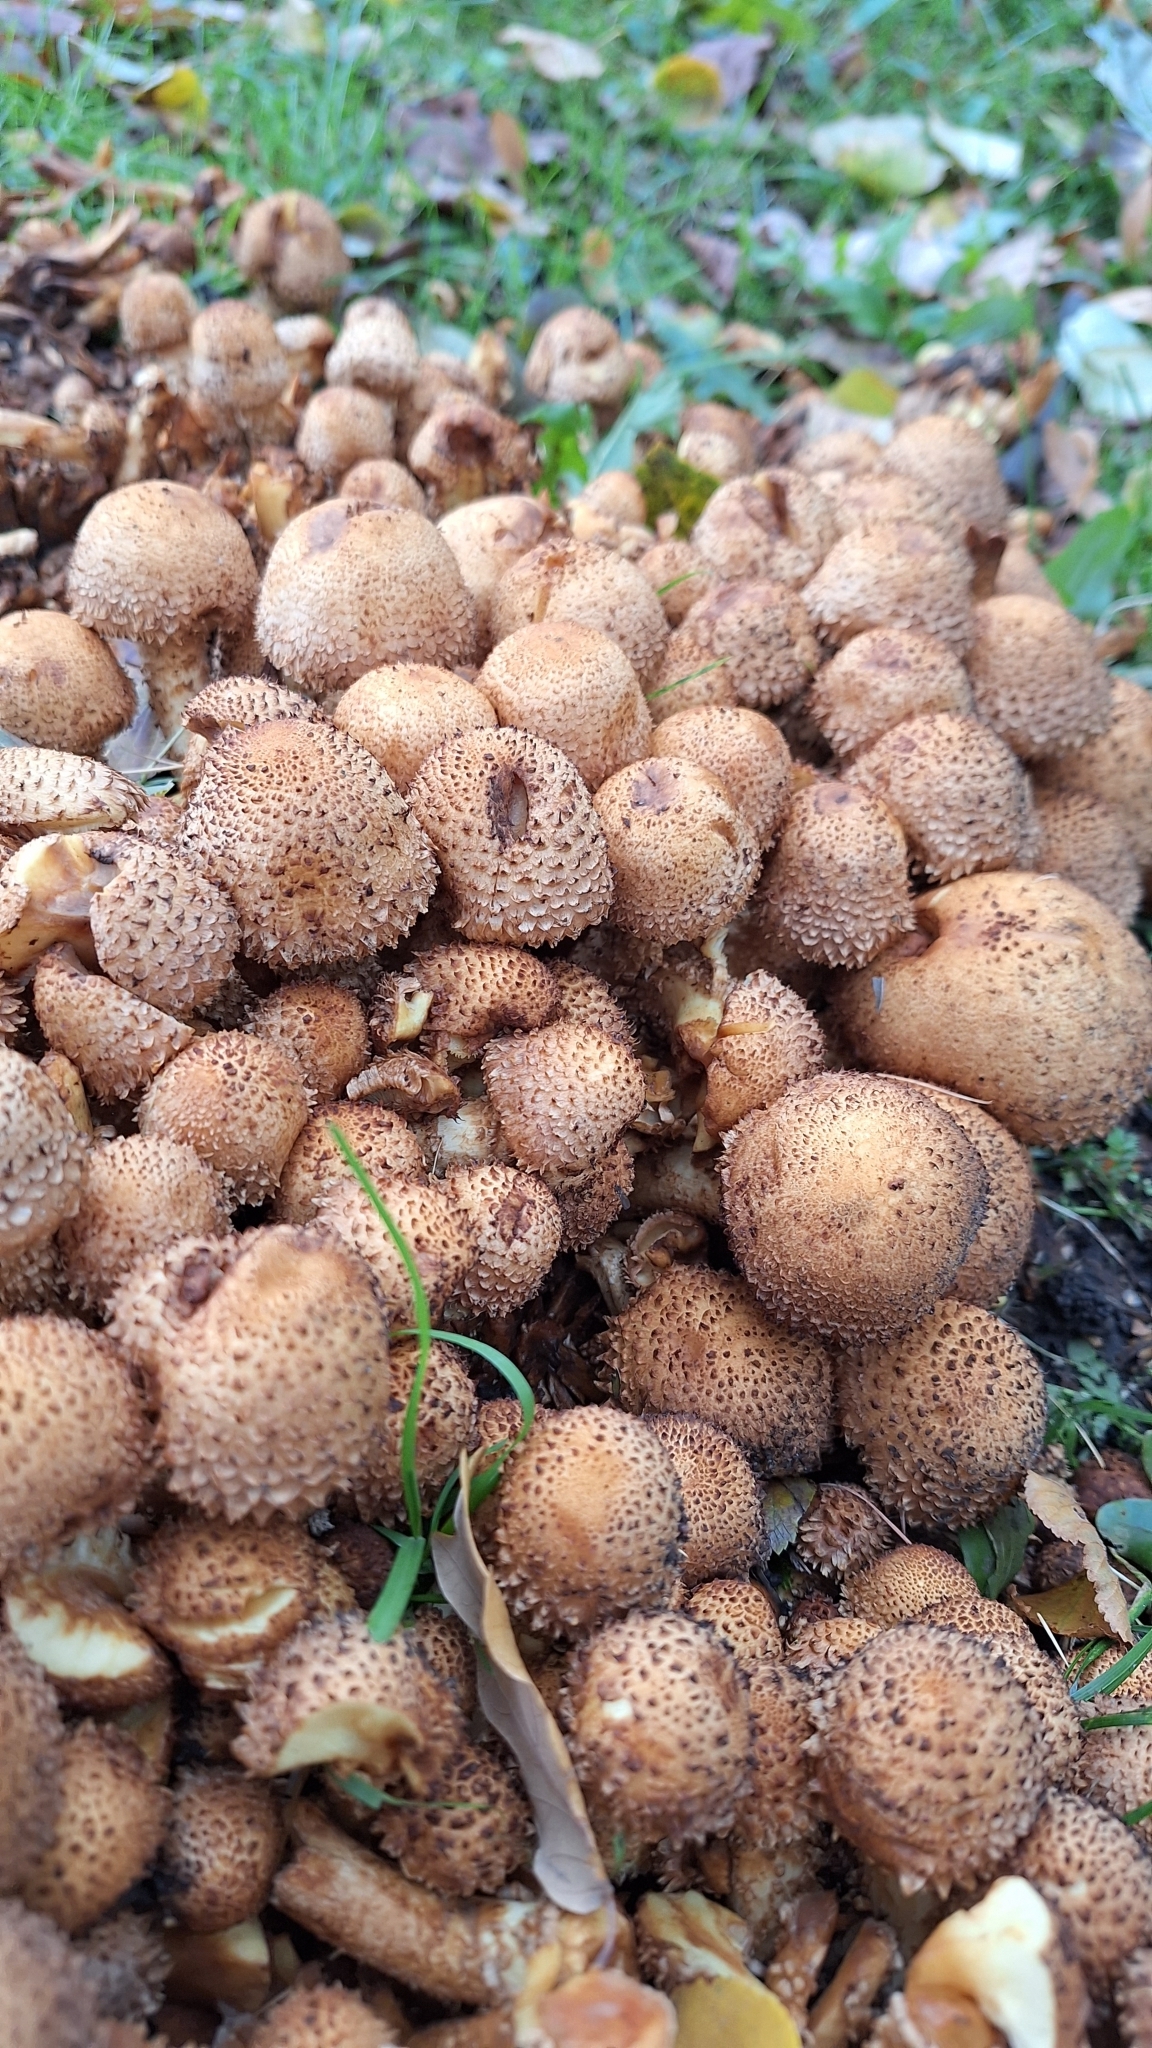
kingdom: Fungi
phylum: Basidiomycota
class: Agaricomycetes
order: Agaricales
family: Strophariaceae
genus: Pholiota
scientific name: Pholiota squarrosa
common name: Shaggy pholiota
